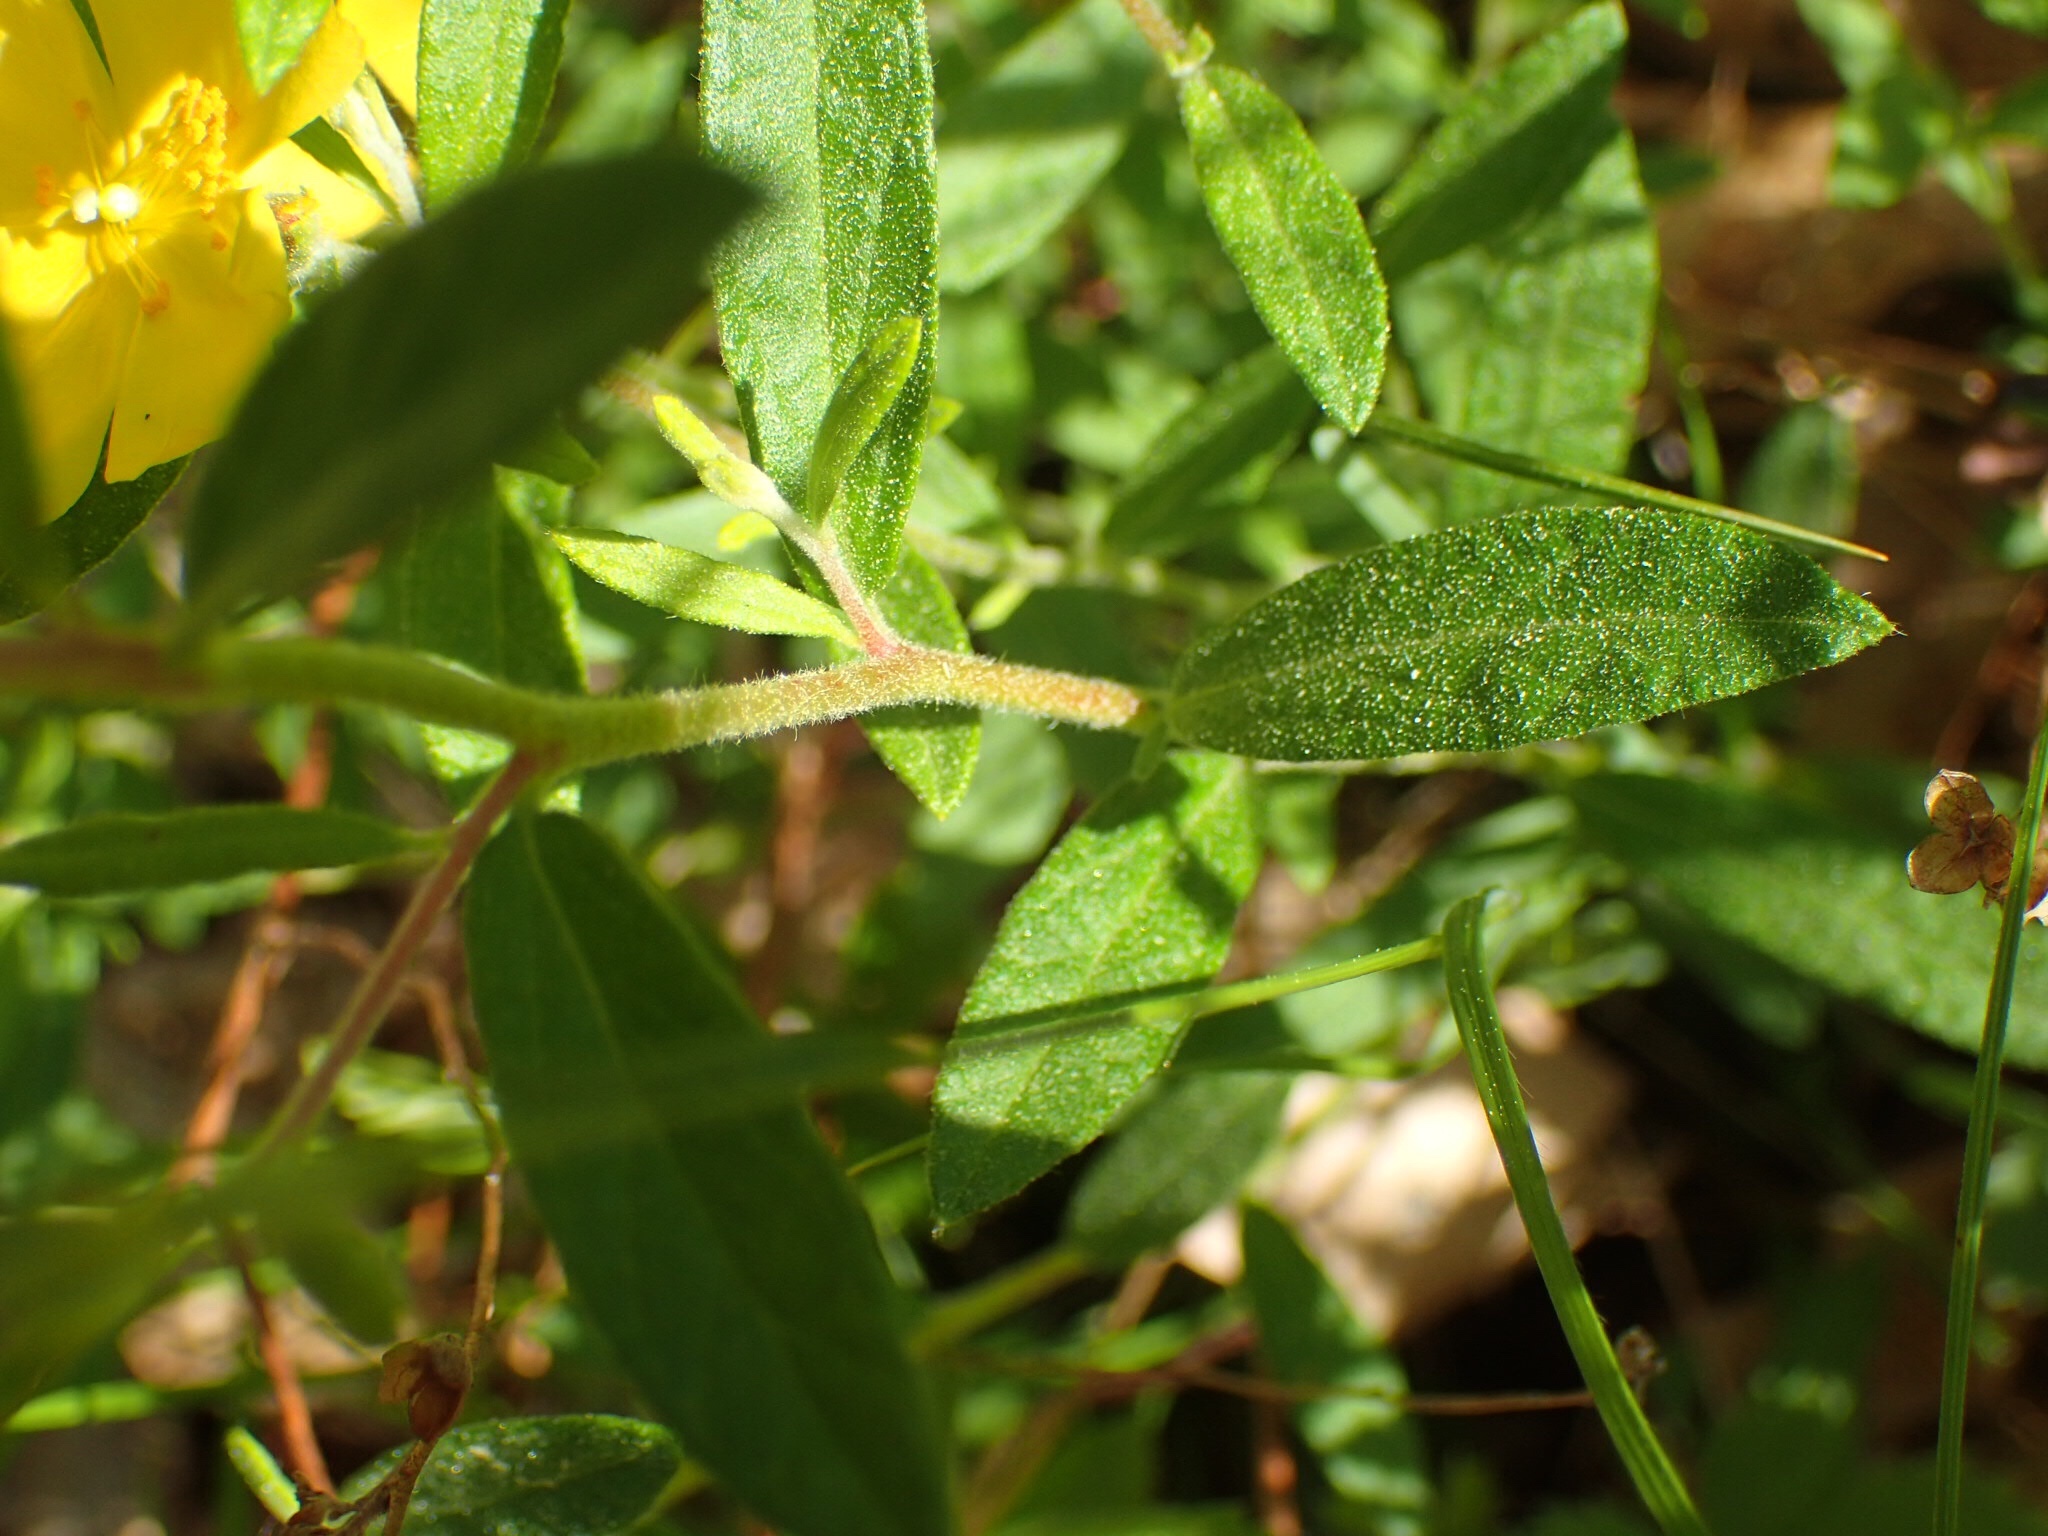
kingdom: Plantae
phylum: Tracheophyta
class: Magnoliopsida
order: Malvales
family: Cistaceae
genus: Crocanthemum
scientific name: Crocanthemum canadense
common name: Canada frostweed
